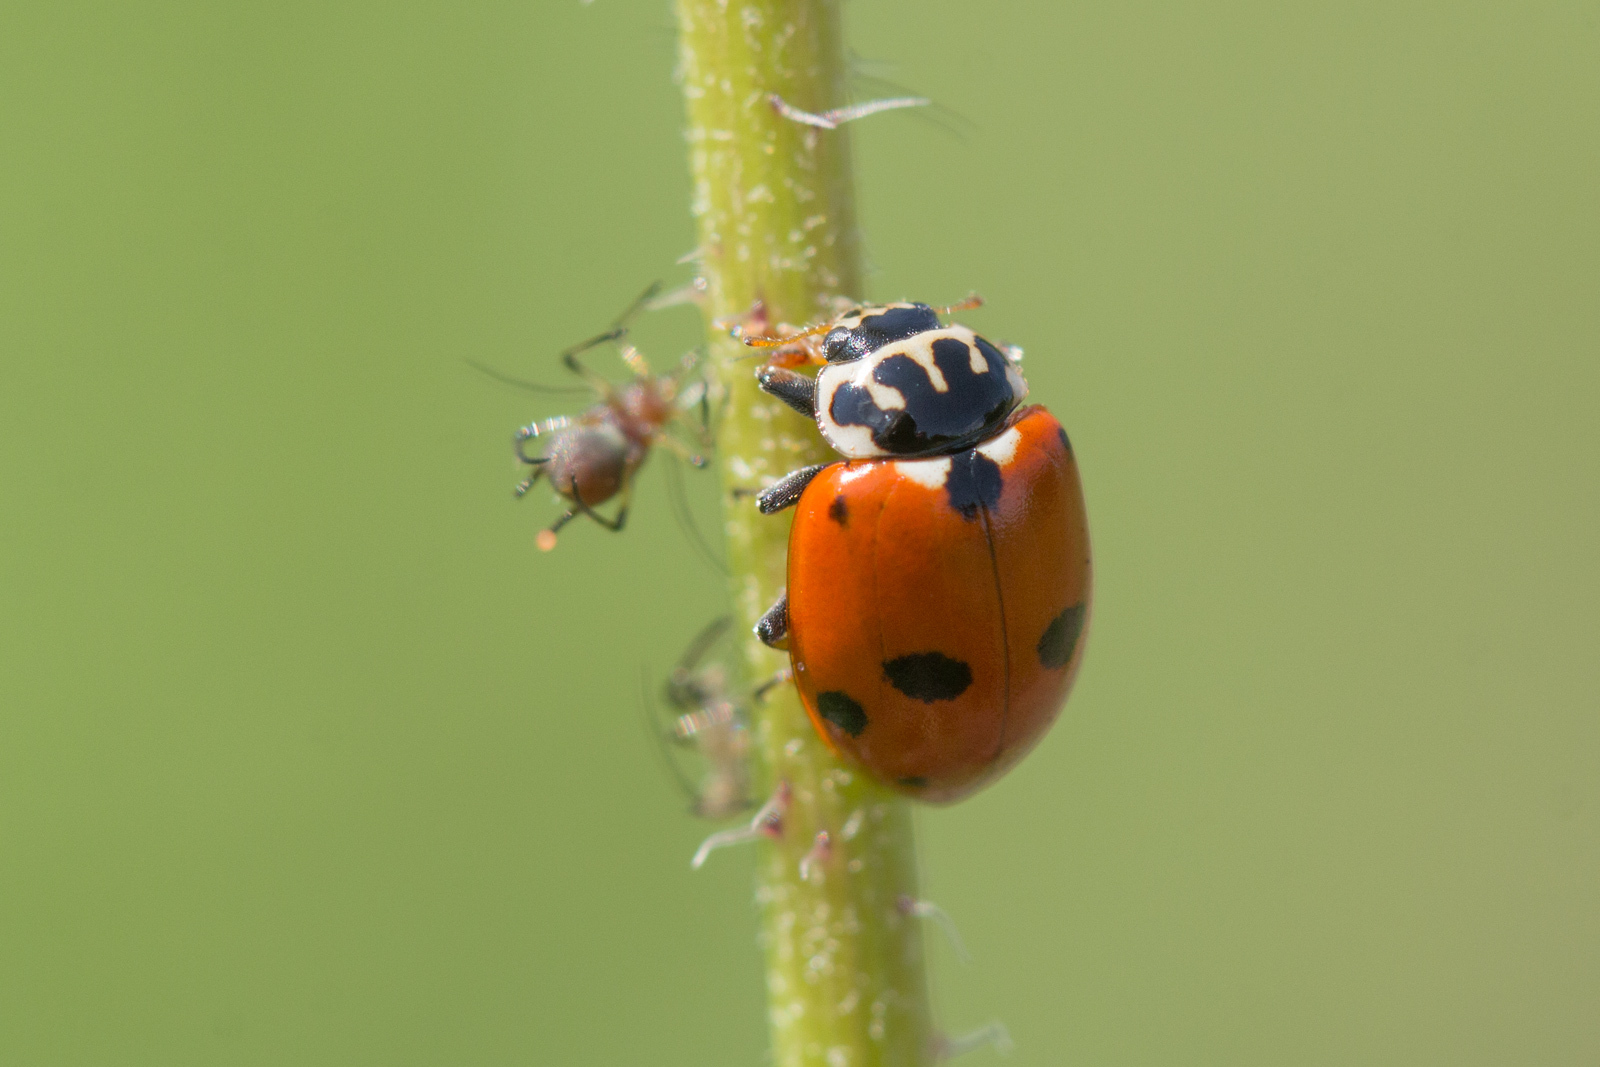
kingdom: Animalia
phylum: Arthropoda
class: Insecta
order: Coleoptera
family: Coccinellidae
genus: Hippodamia
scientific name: Hippodamia variegata
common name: Ladybird beetle
